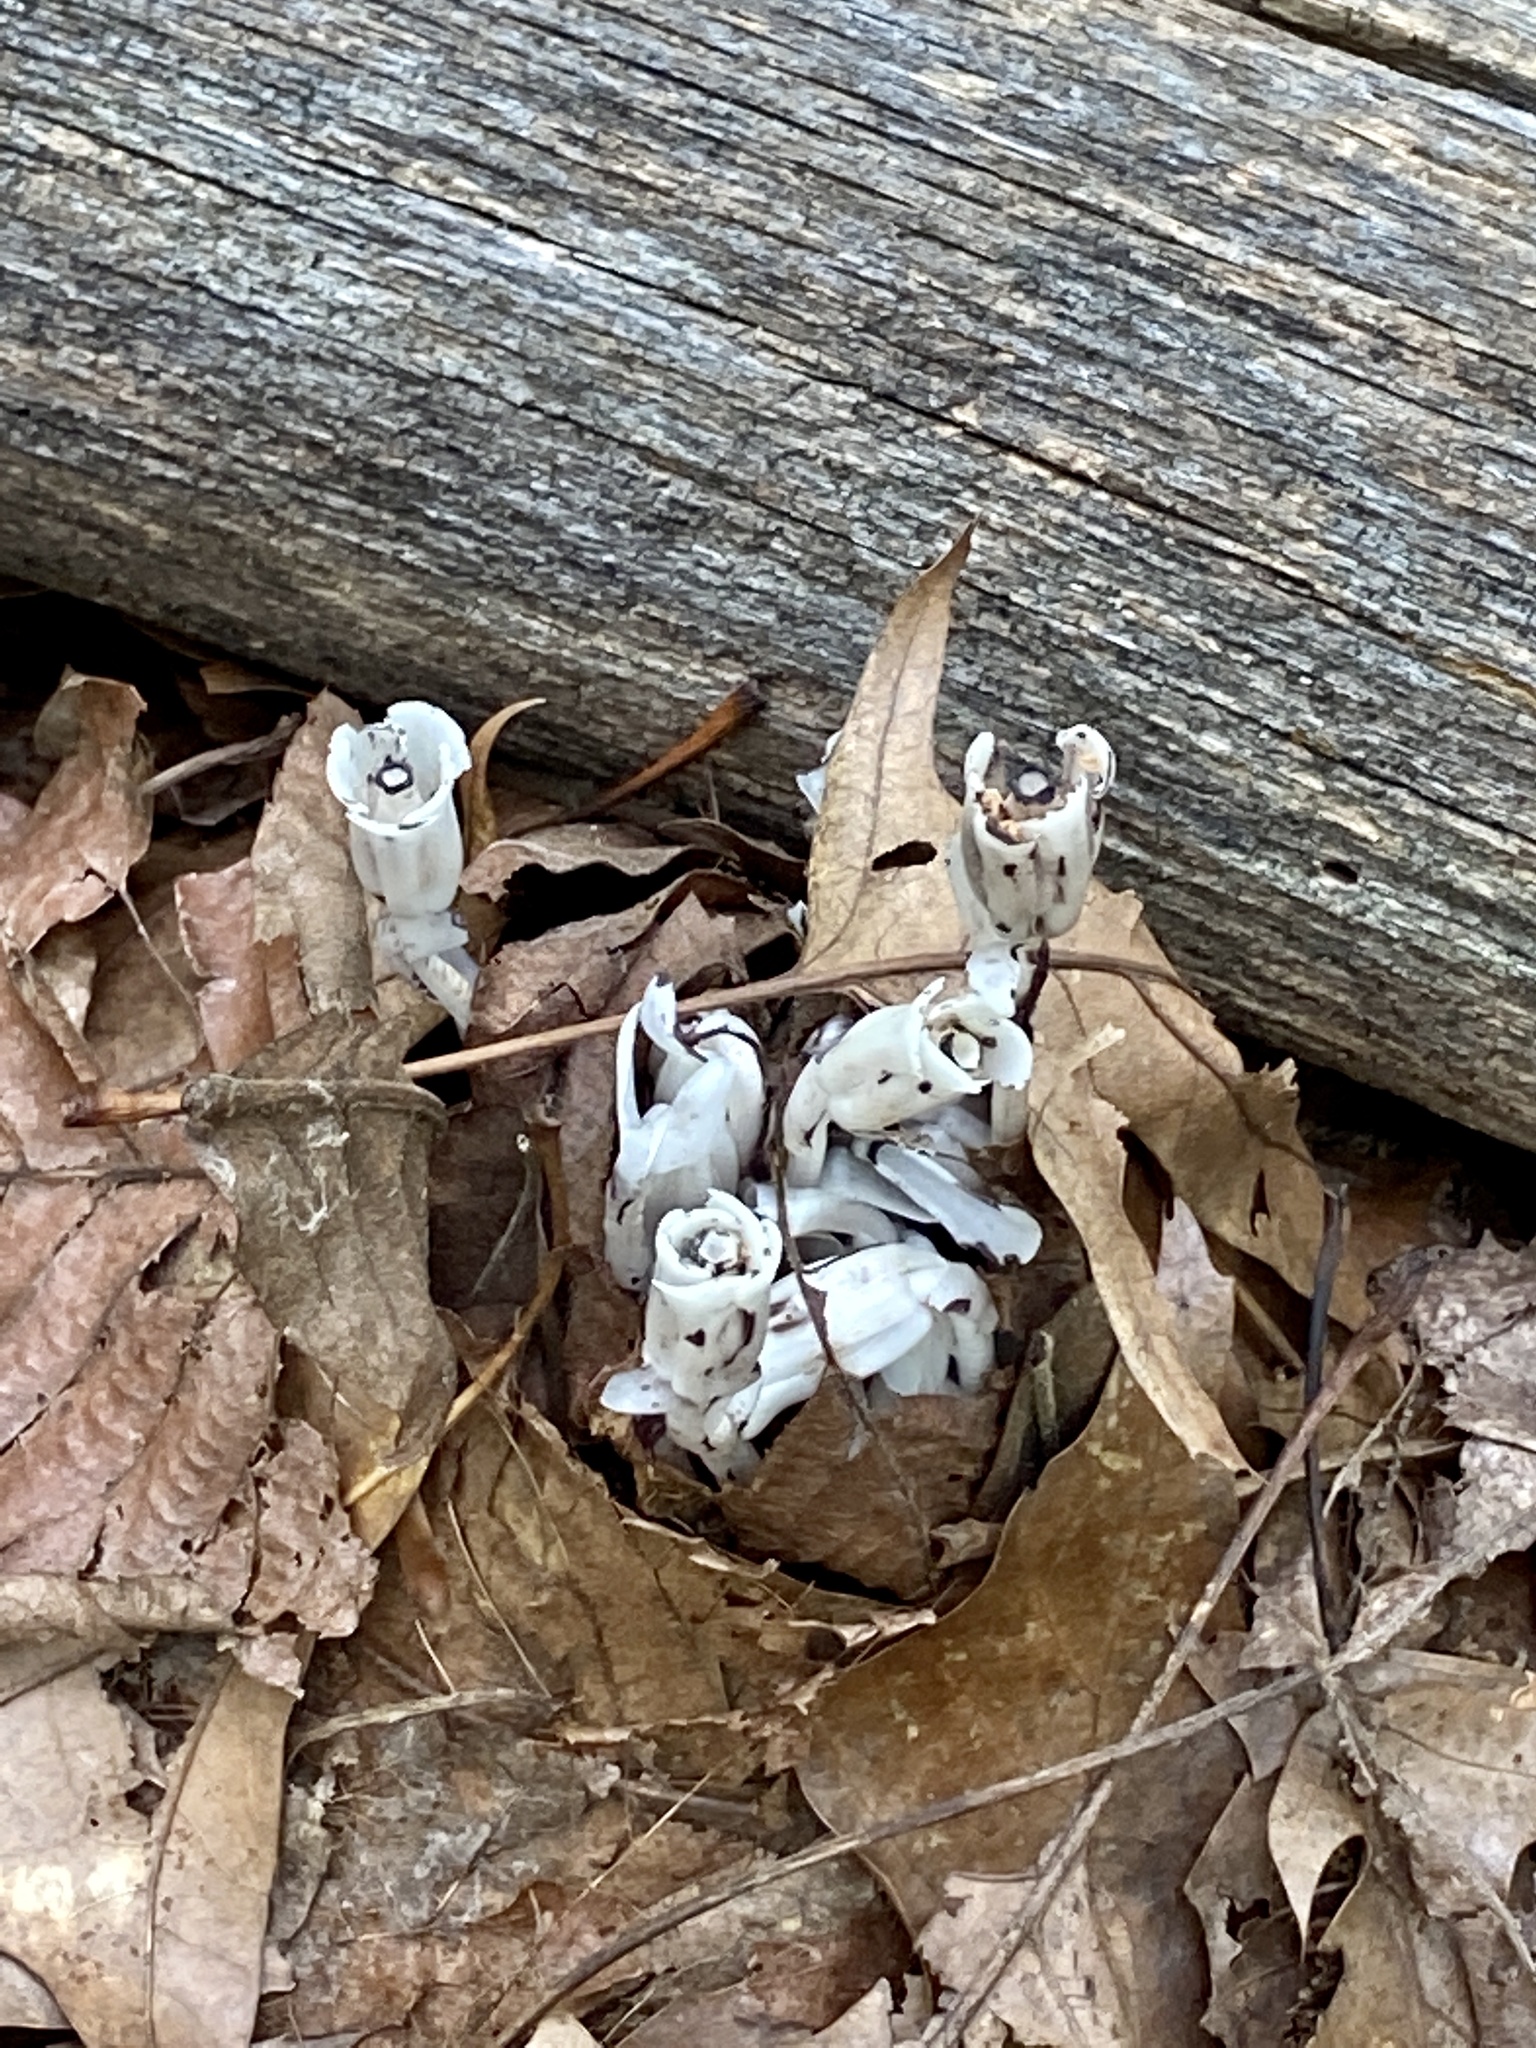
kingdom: Plantae
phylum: Tracheophyta
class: Magnoliopsida
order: Ericales
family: Ericaceae
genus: Monotropa
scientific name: Monotropa uniflora
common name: Convulsion root
